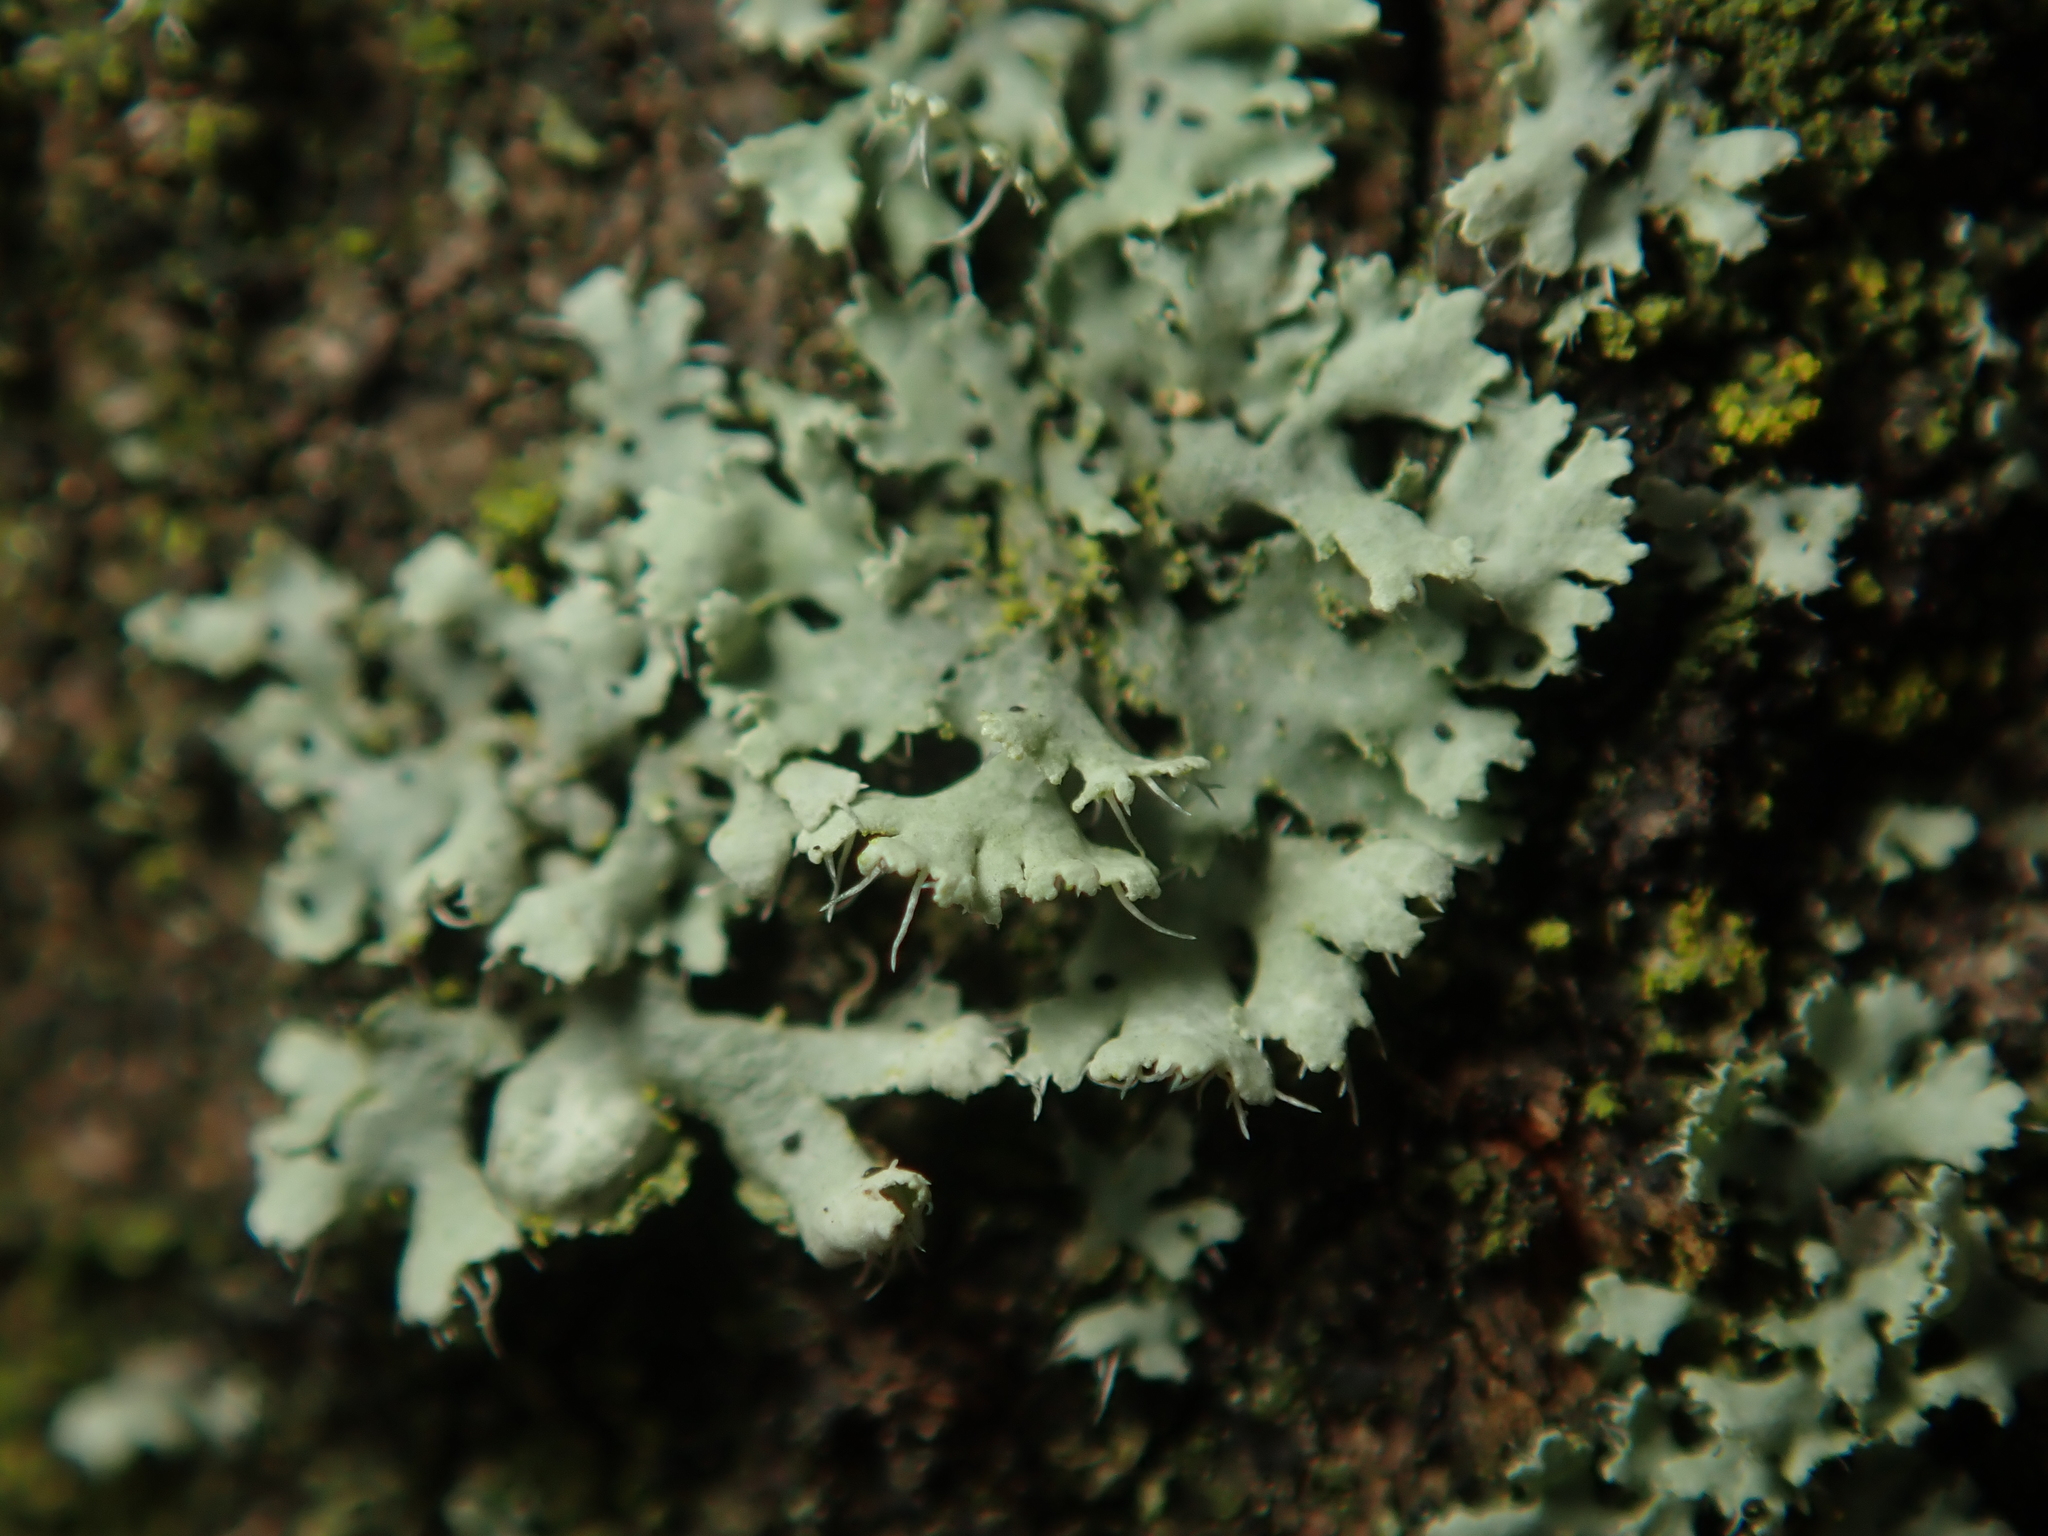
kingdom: Fungi
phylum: Ascomycota
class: Lecanoromycetes
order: Caliciales
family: Physciaceae
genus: Physcia
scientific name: Physcia adscendens
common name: Hooded rosette lichen
